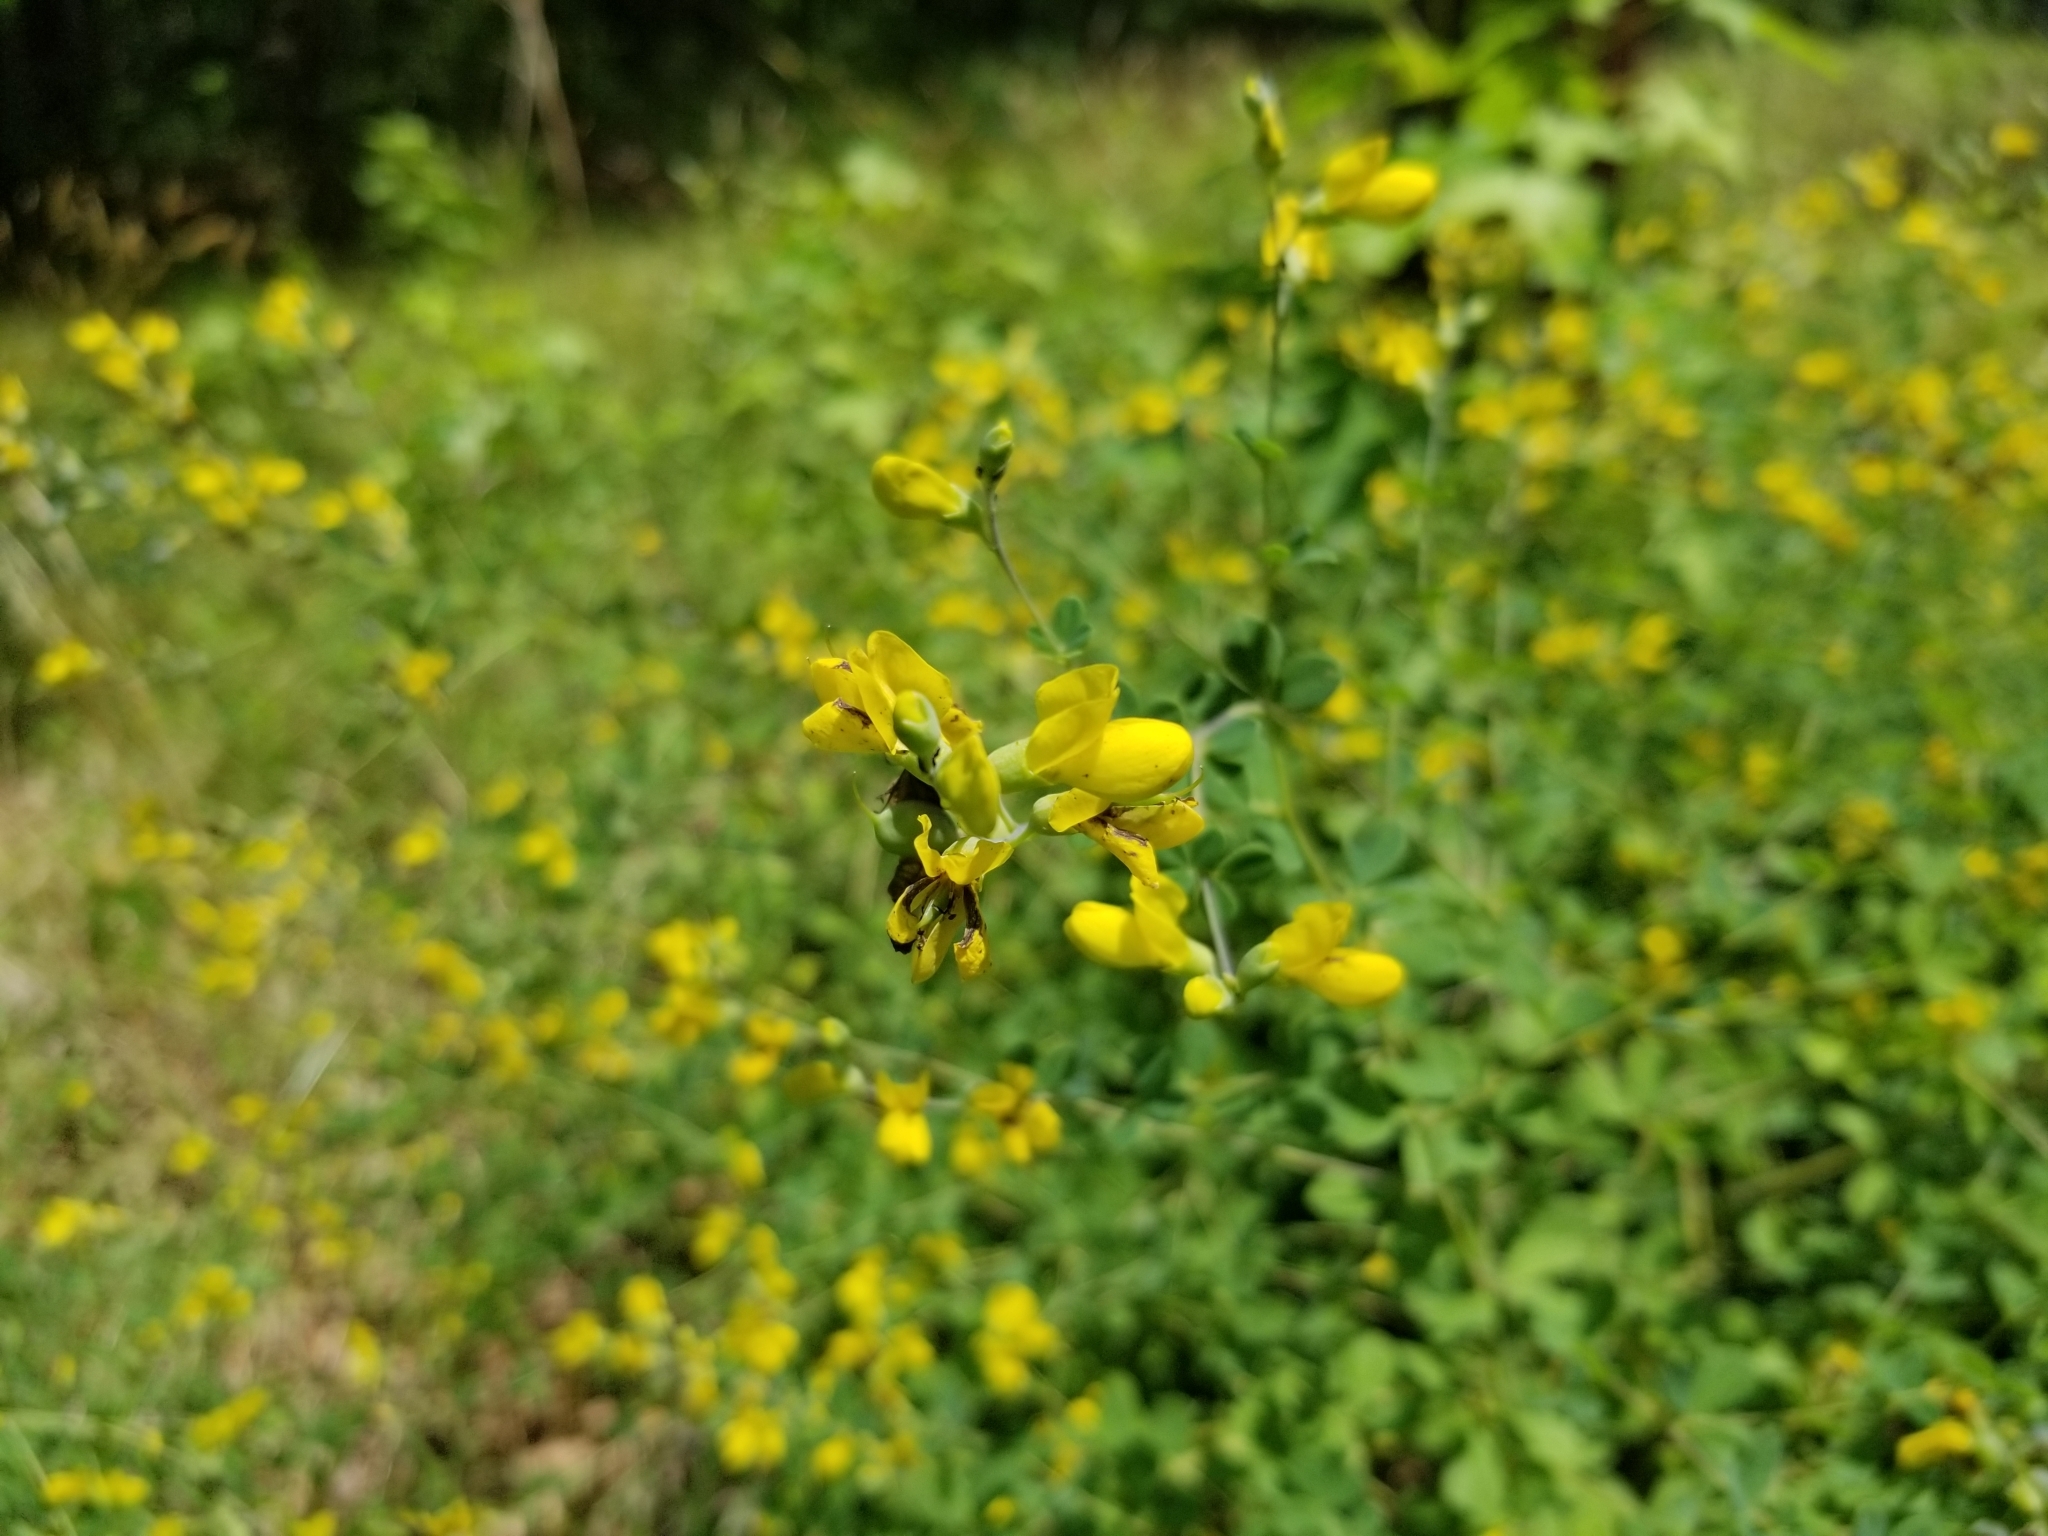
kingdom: Plantae
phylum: Tracheophyta
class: Magnoliopsida
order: Fabales
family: Fabaceae
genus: Baptisia
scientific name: Baptisia tinctoria
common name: Wild indigo
